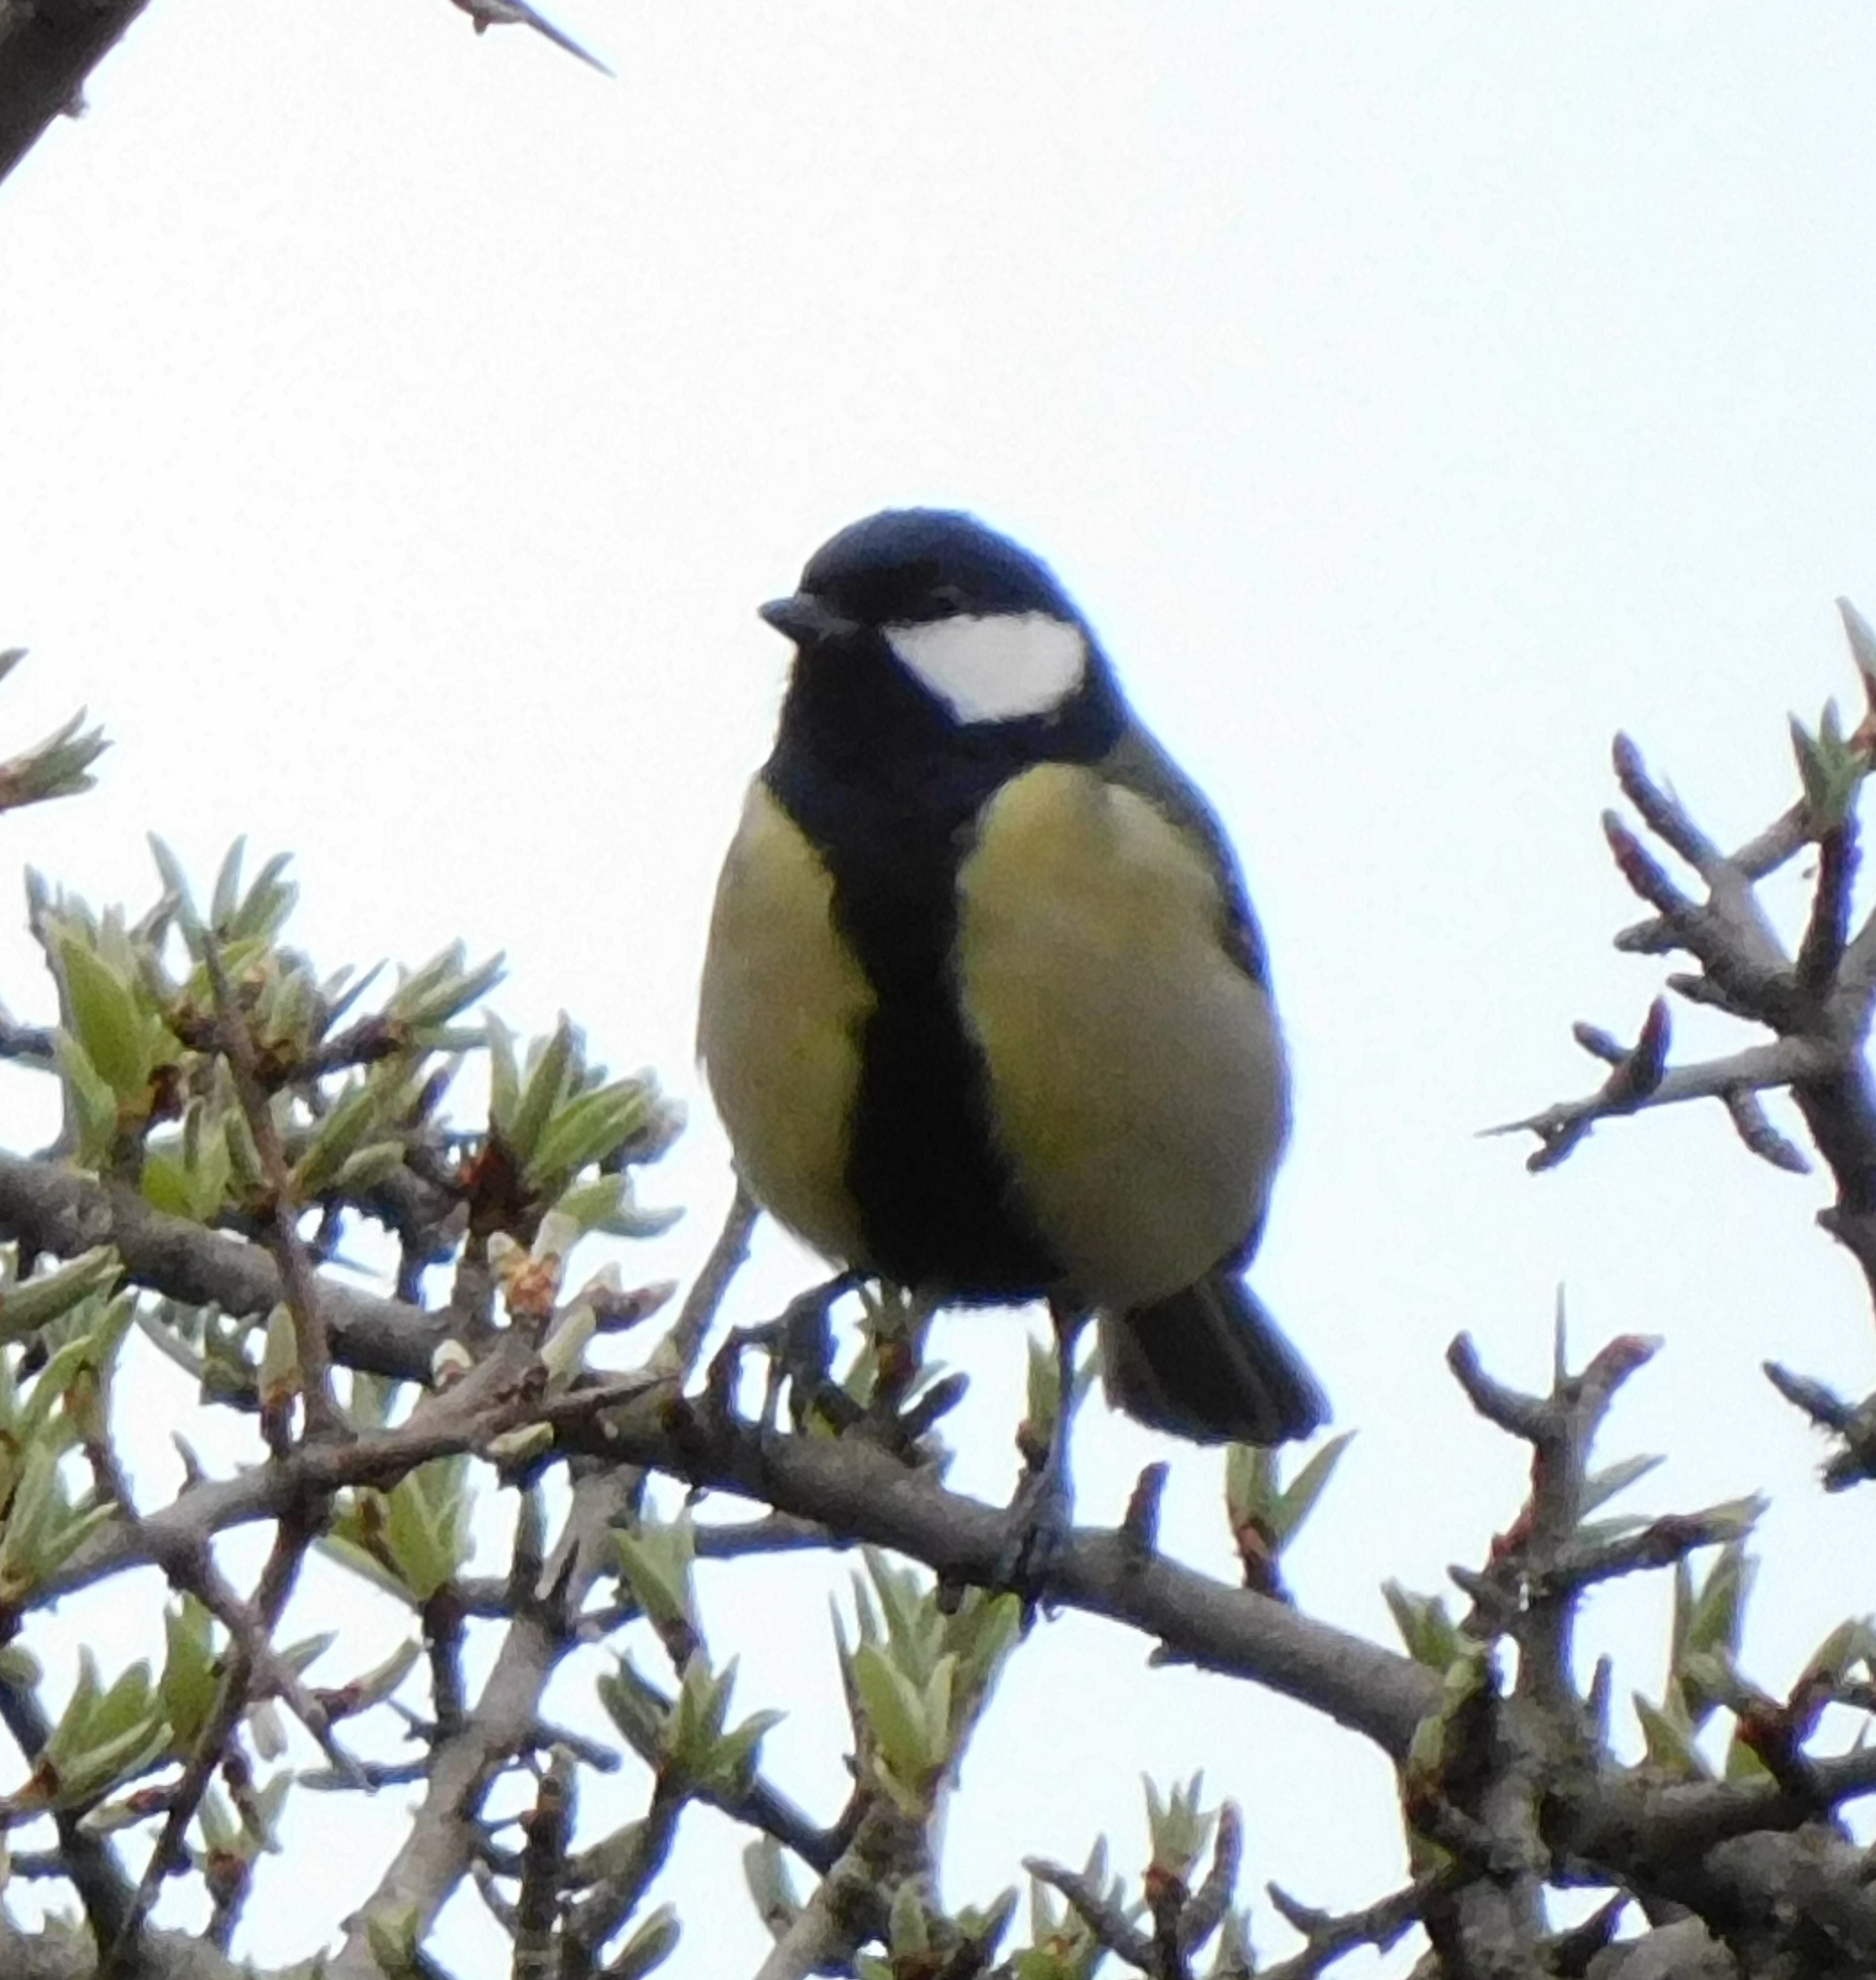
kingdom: Animalia
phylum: Chordata
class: Aves
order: Passeriformes
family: Paridae
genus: Parus
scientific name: Parus major
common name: Great tit
